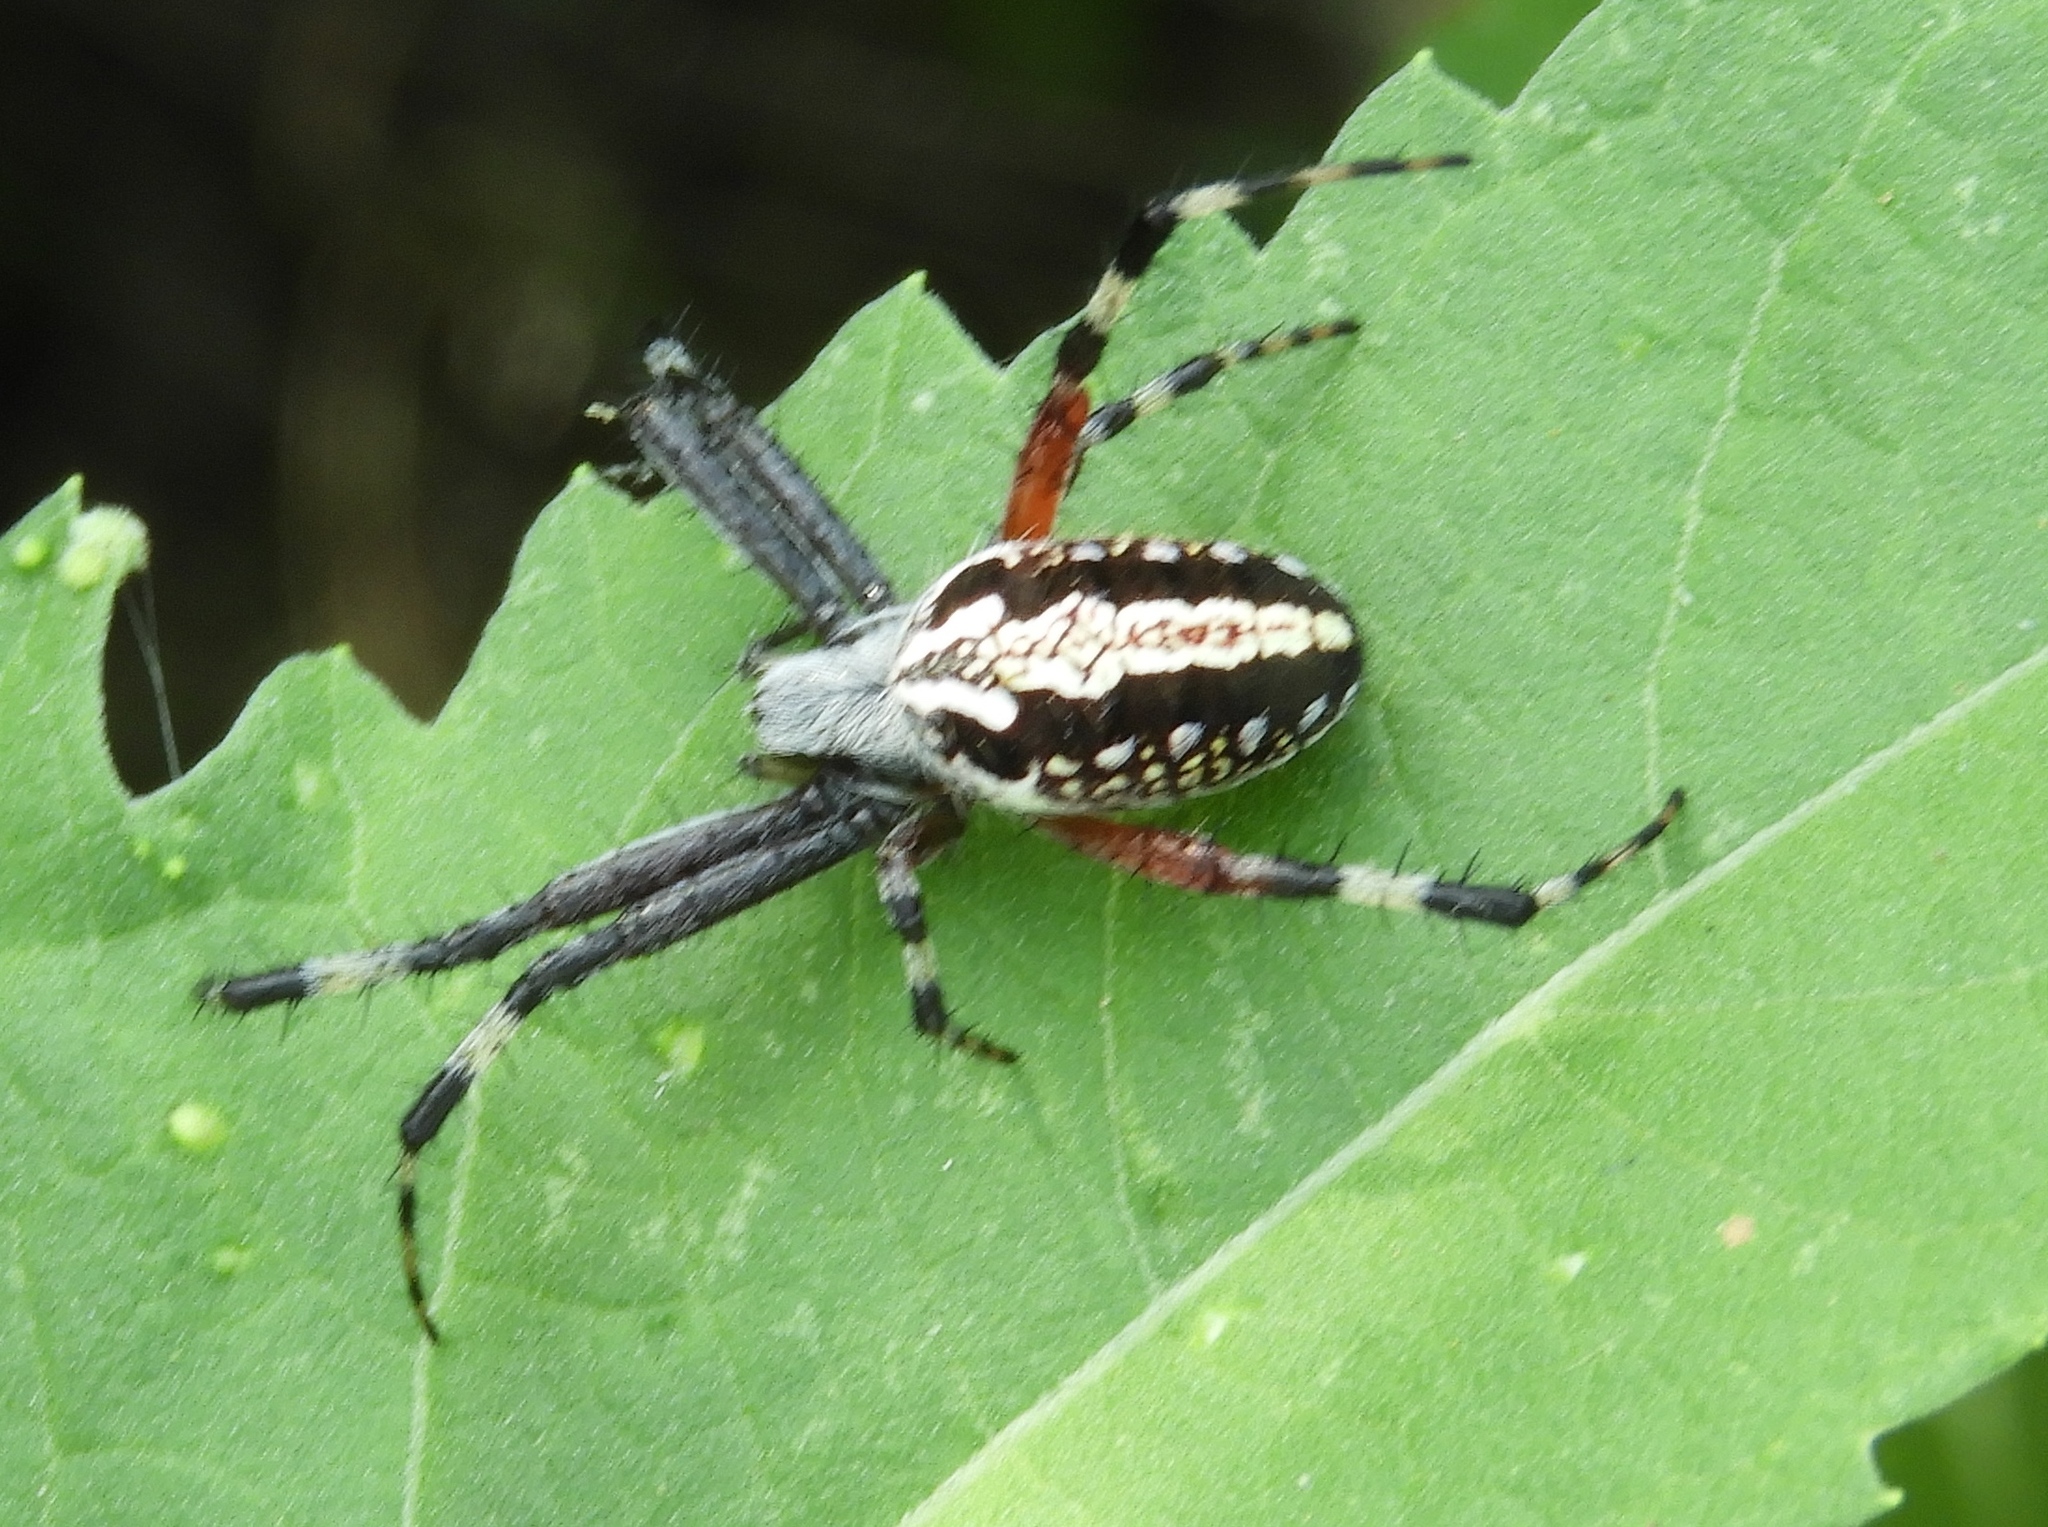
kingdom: Animalia
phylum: Arthropoda
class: Arachnida
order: Araneae
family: Araneidae
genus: Neoscona
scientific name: Neoscona
